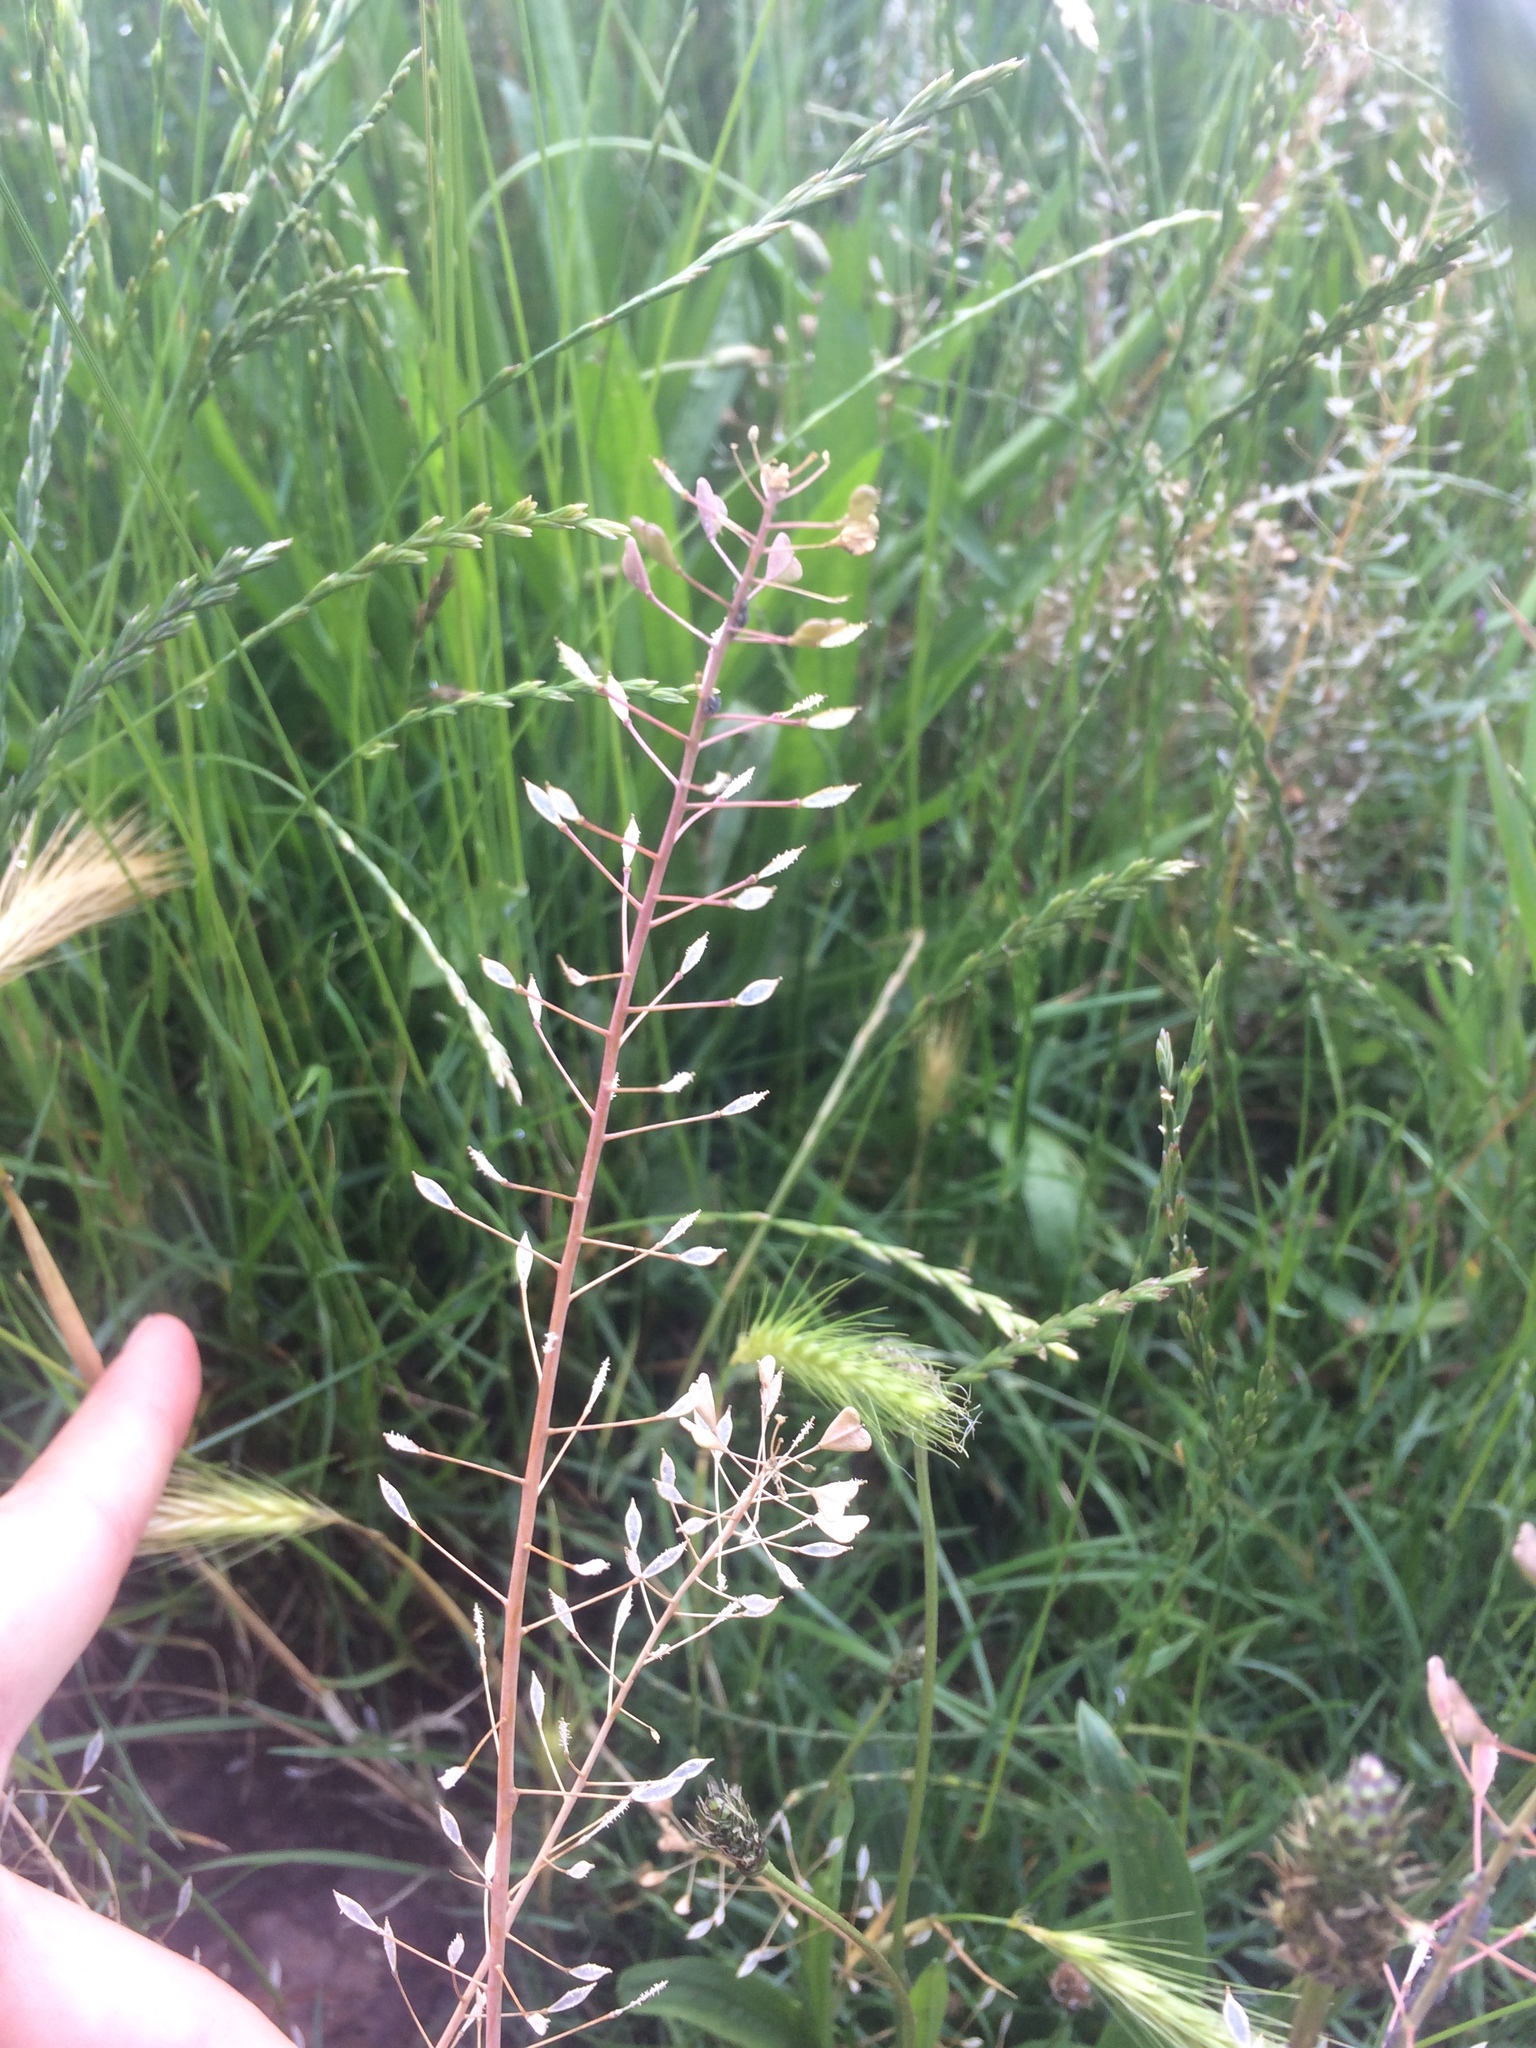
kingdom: Plantae
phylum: Tracheophyta
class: Magnoliopsida
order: Brassicales
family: Brassicaceae
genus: Capsella
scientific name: Capsella bursa-pastoris
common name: Shepherd's purse
